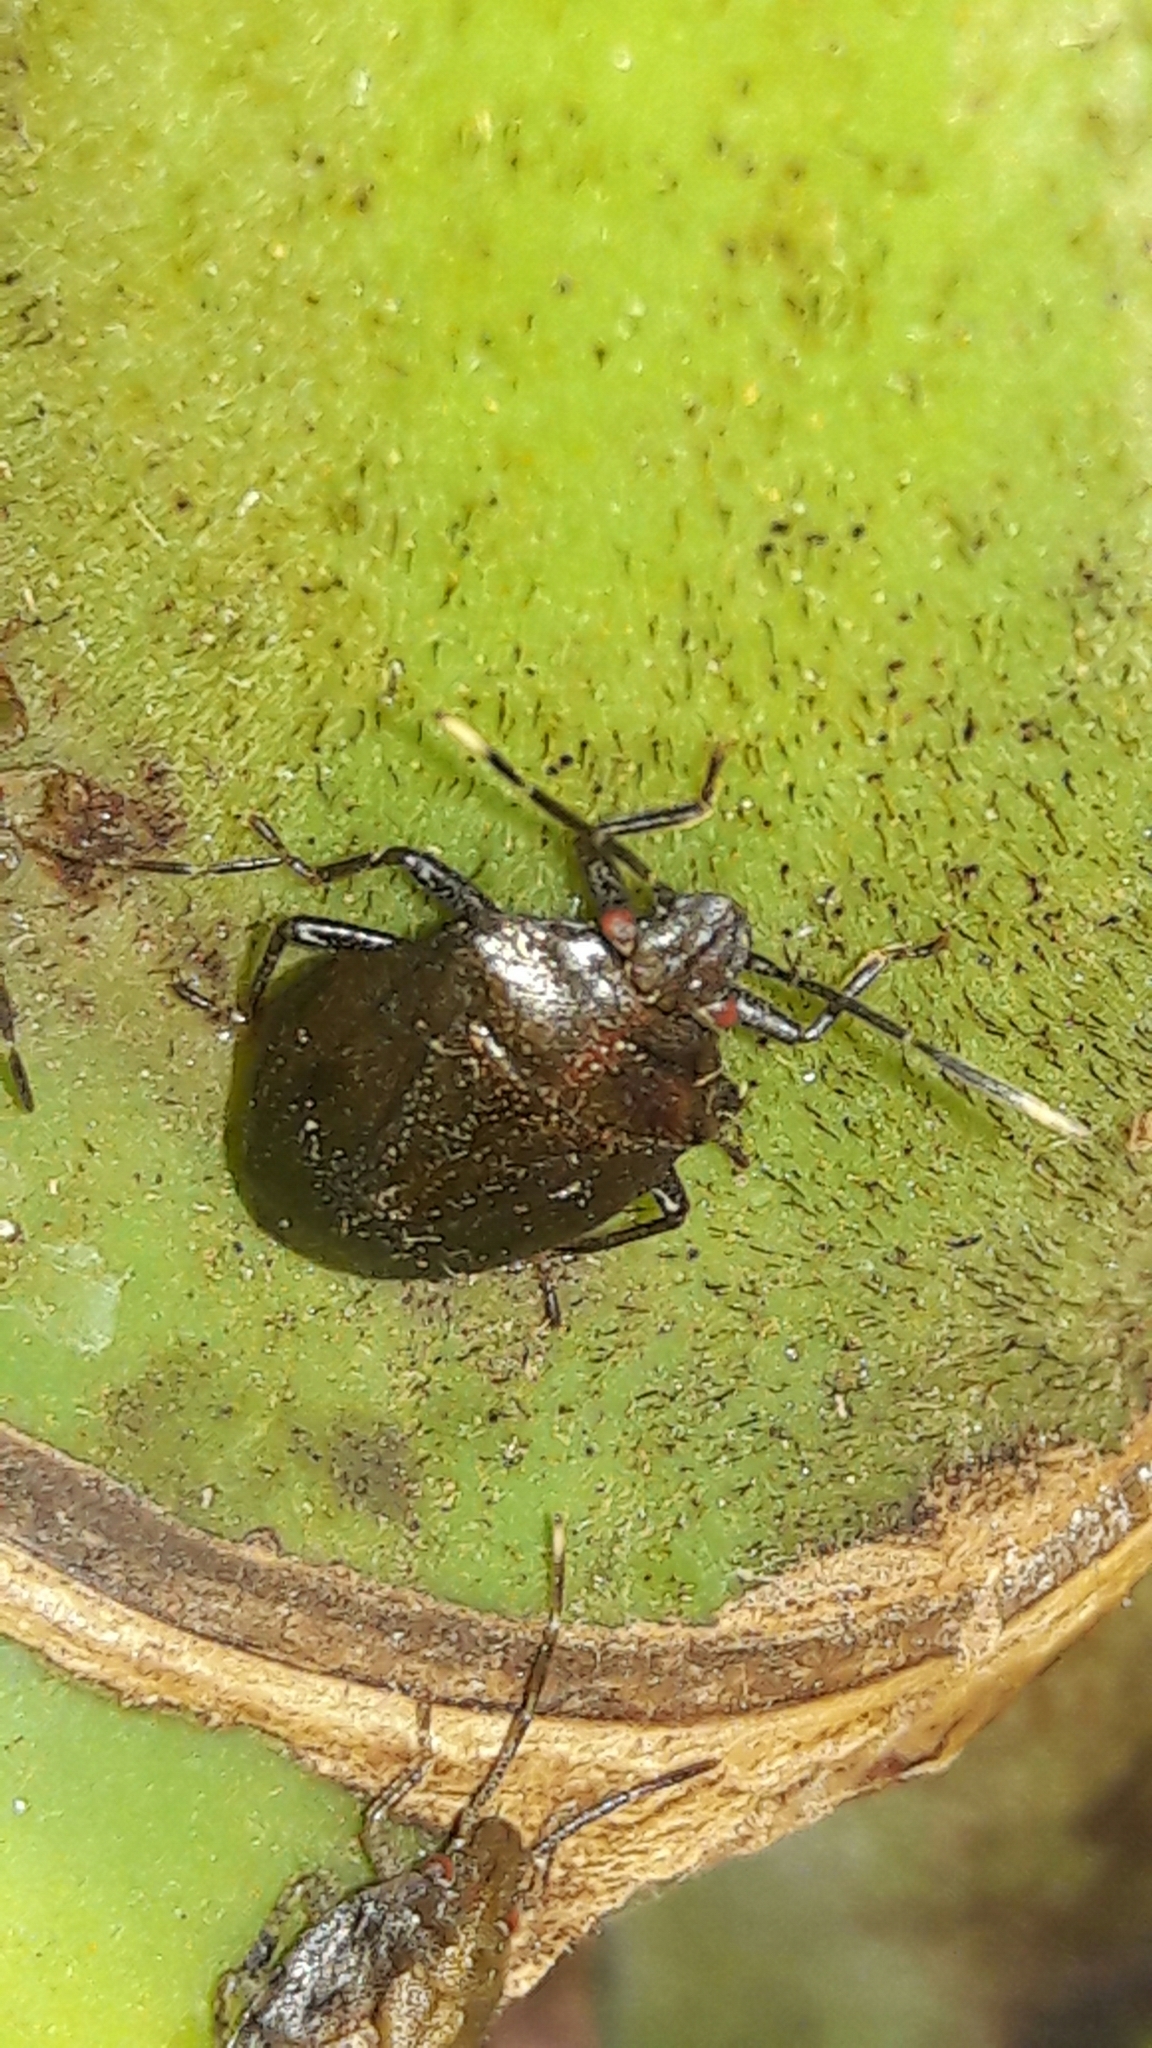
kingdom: Animalia
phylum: Arthropoda
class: Insecta
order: Hemiptera
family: Pentatomidae
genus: Antiteuchus
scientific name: Antiteuchus tripterus
